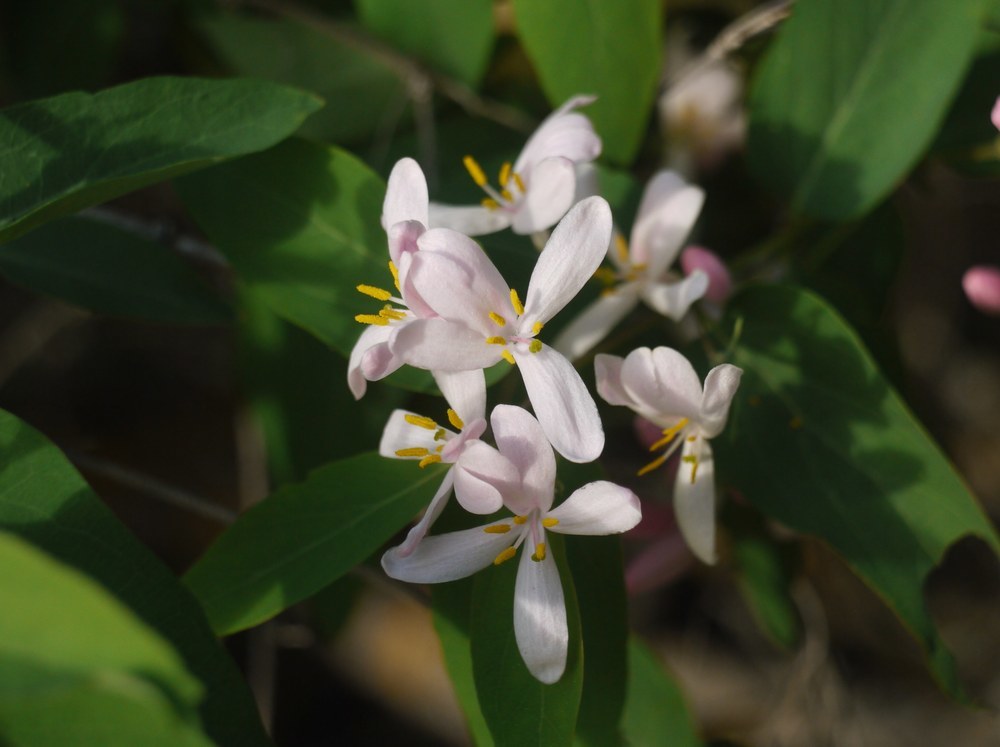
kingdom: Plantae
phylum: Tracheophyta
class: Magnoliopsida
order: Dipsacales
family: Caprifoliaceae
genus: Lonicera
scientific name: Lonicera tatarica
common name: Tatarian honeysuckle
